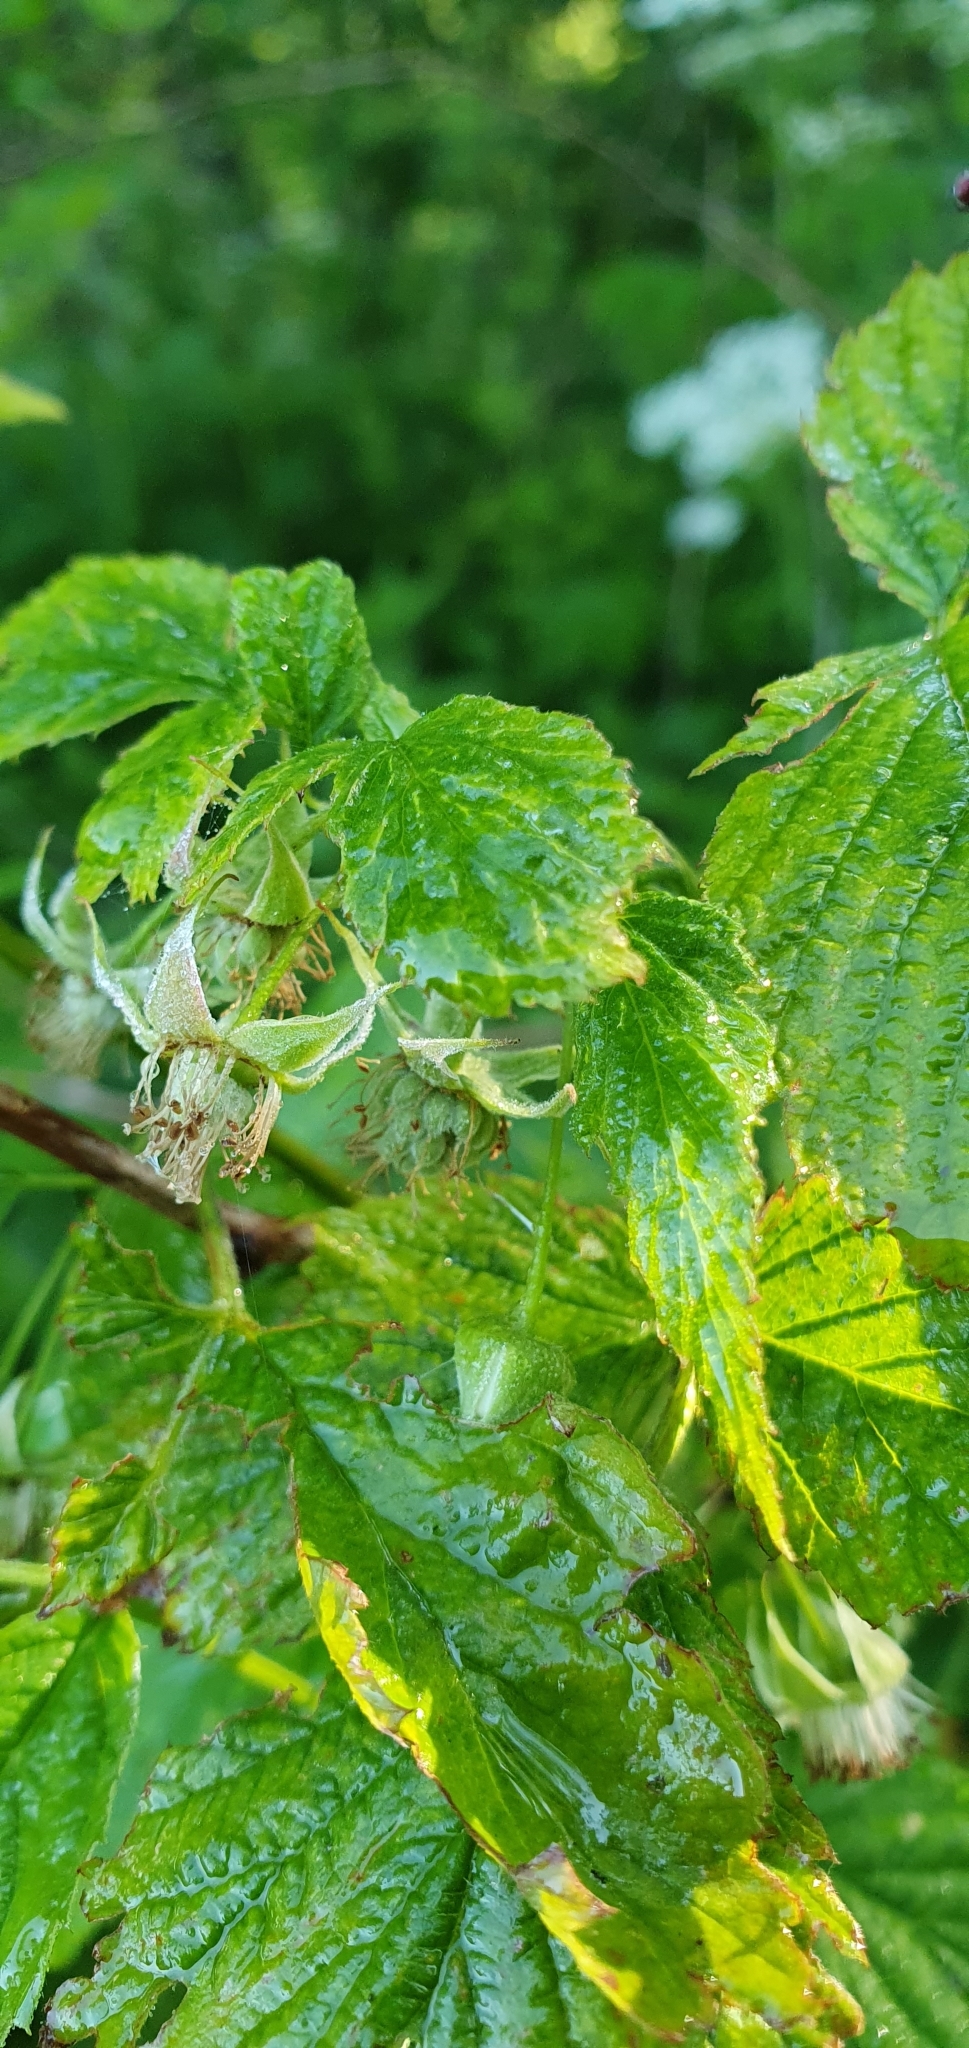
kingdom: Plantae
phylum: Tracheophyta
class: Magnoliopsida
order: Rosales
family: Rosaceae
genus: Rubus
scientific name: Rubus idaeus
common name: Raspberry
